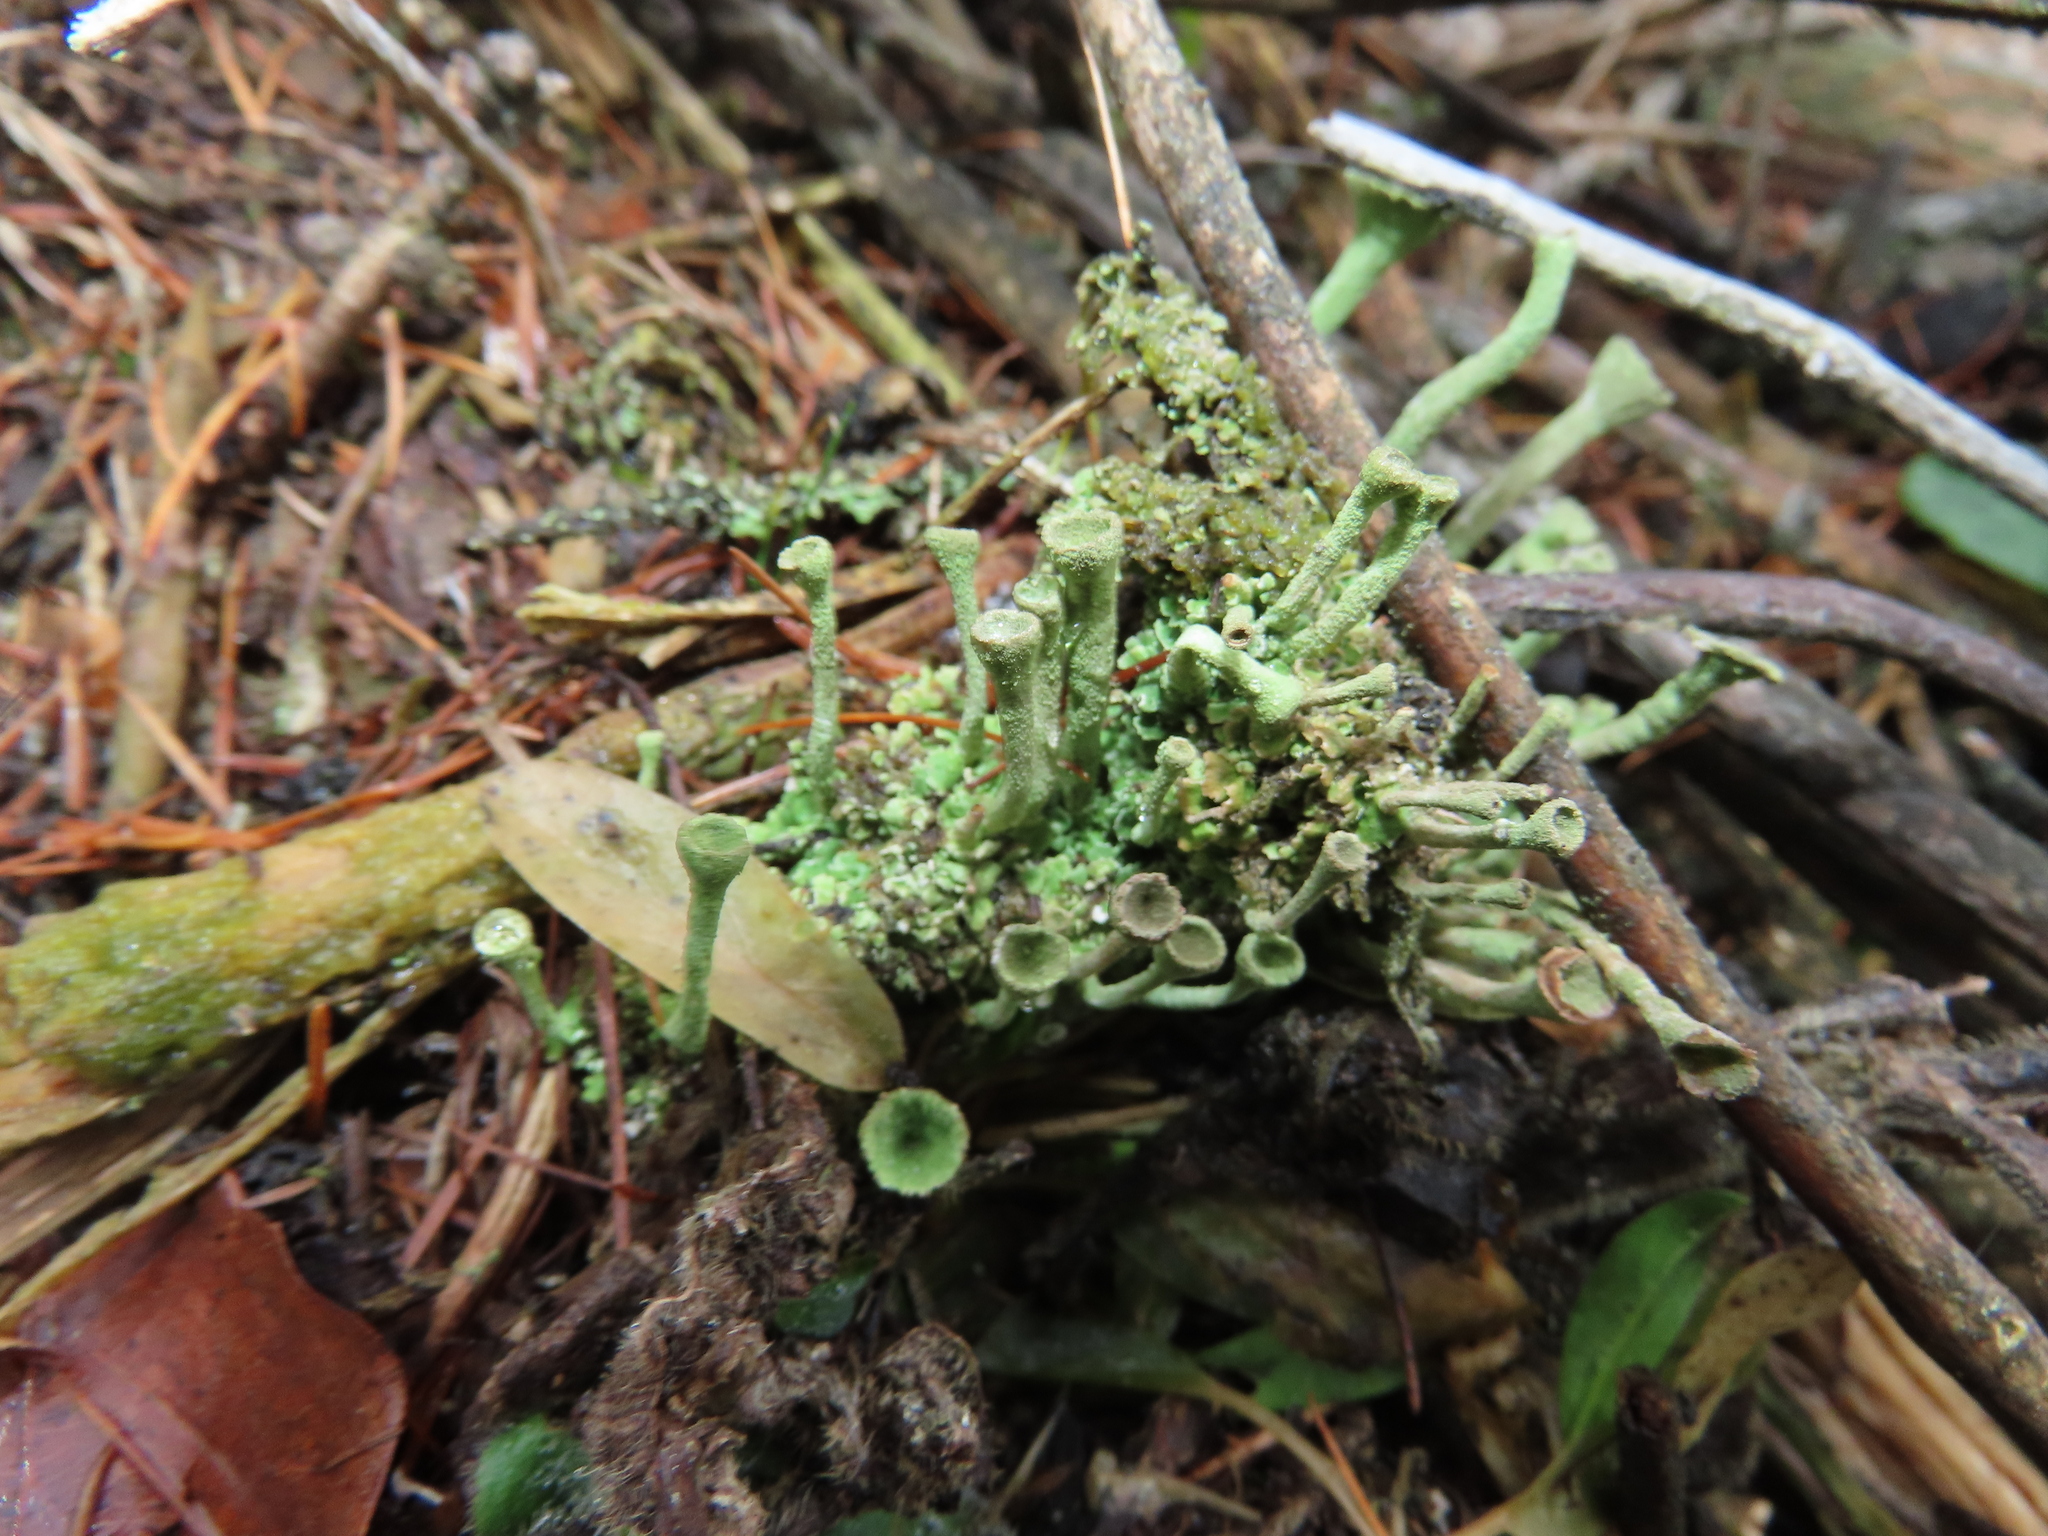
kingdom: Fungi
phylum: Ascomycota
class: Lecanoromycetes
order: Lecanorales
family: Cladoniaceae
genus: Cladonia
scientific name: Cladonia fimbriata
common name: Powdered trumpet lichen
